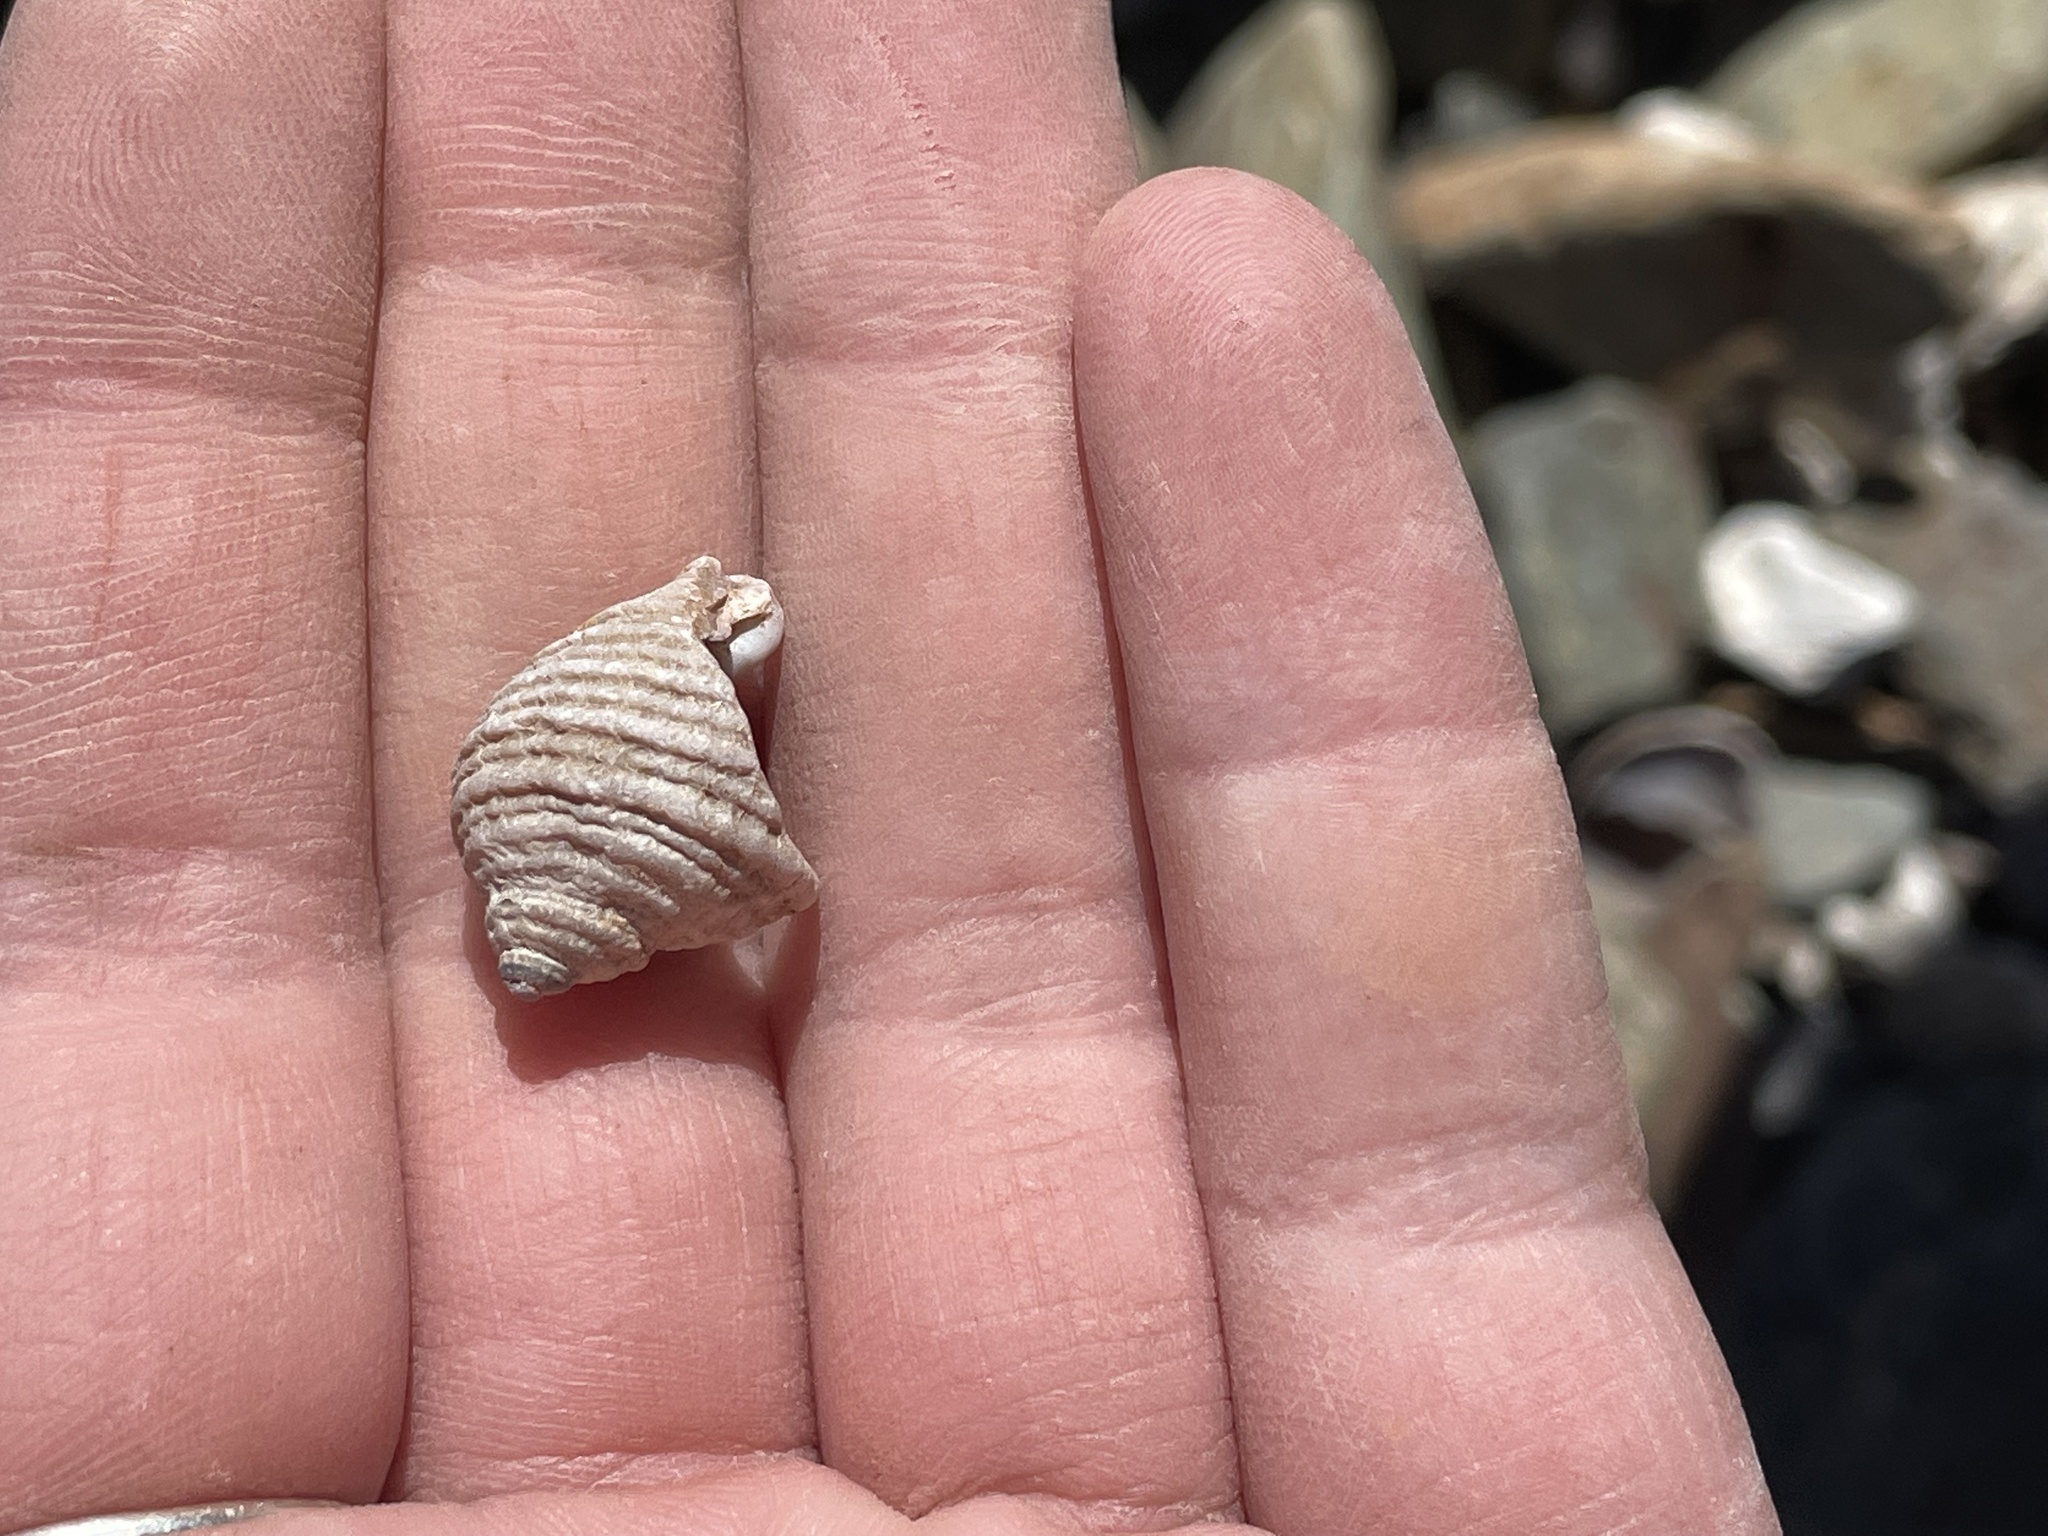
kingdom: Animalia
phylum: Mollusca
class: Gastropoda
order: Neogastropoda
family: Muricidae
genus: Nucella
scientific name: Nucella lapillus
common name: Dog whelk
